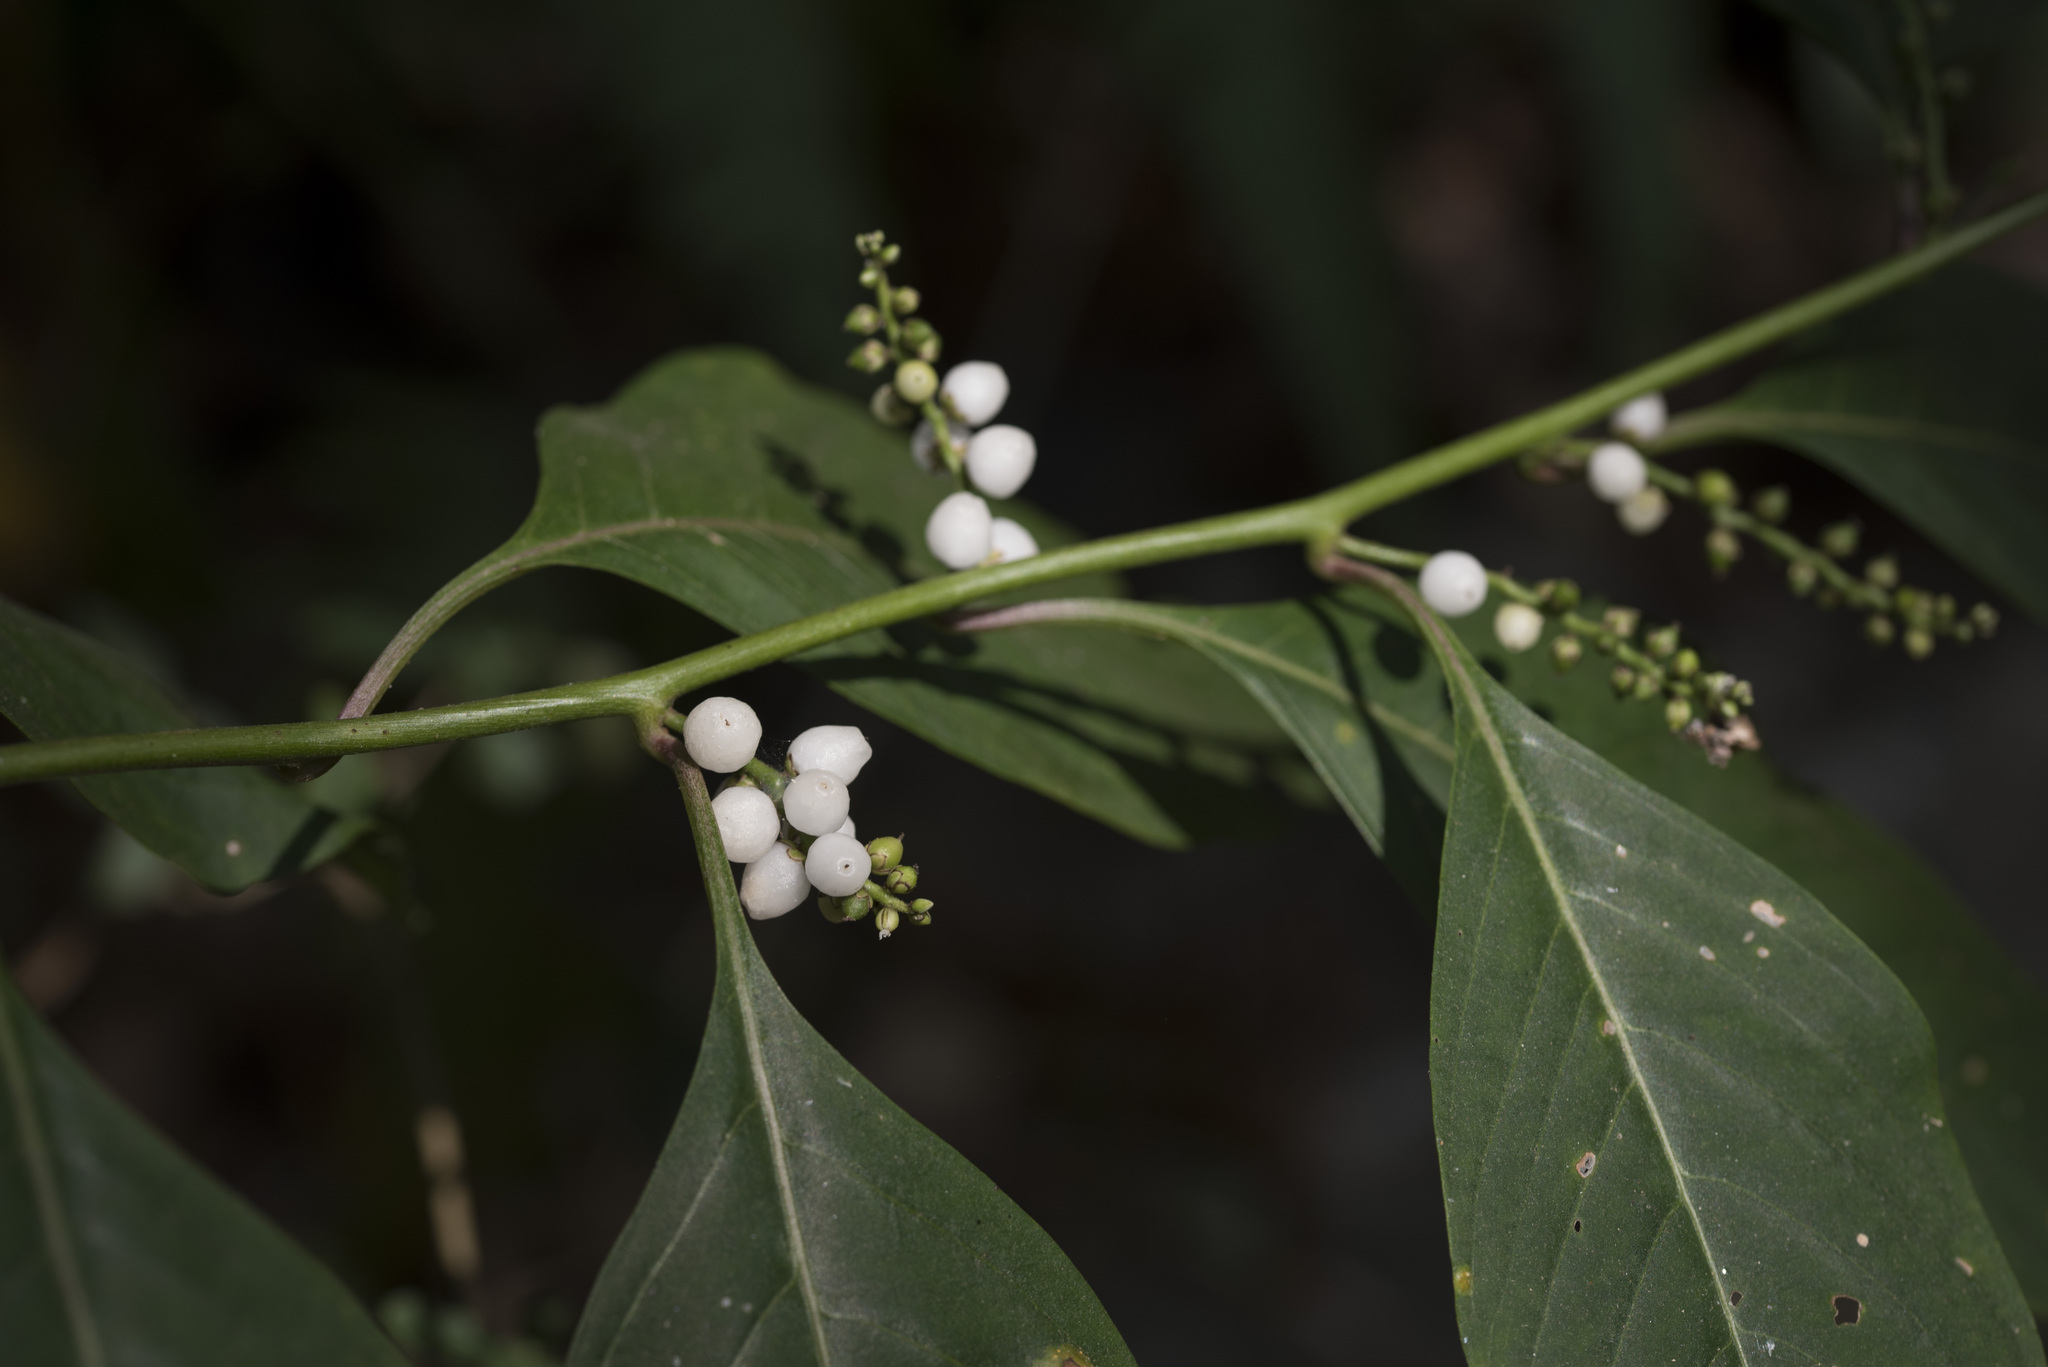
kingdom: Plantae
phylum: Tracheophyta
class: Magnoliopsida
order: Caryophyllales
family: Amaranthaceae
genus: Deeringia
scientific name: Deeringia polysperma
